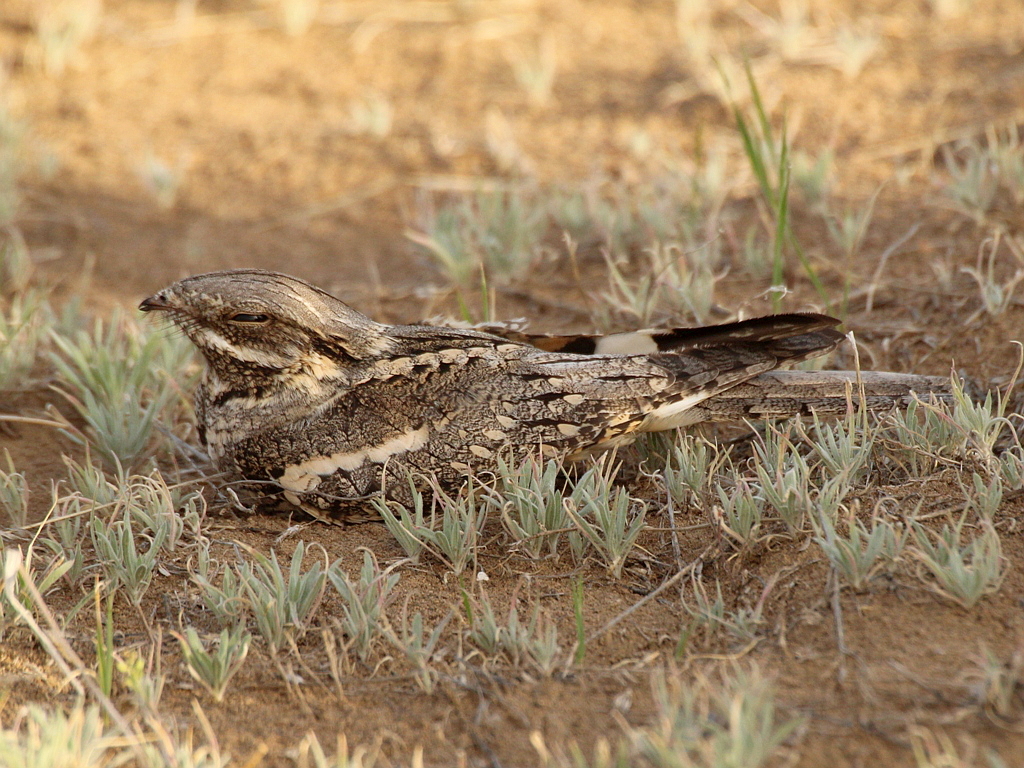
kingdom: Animalia
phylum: Chordata
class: Aves
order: Caprimulgiformes
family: Caprimulgidae
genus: Caprimulgus
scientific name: Caprimulgus europaeus
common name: European nightjar
